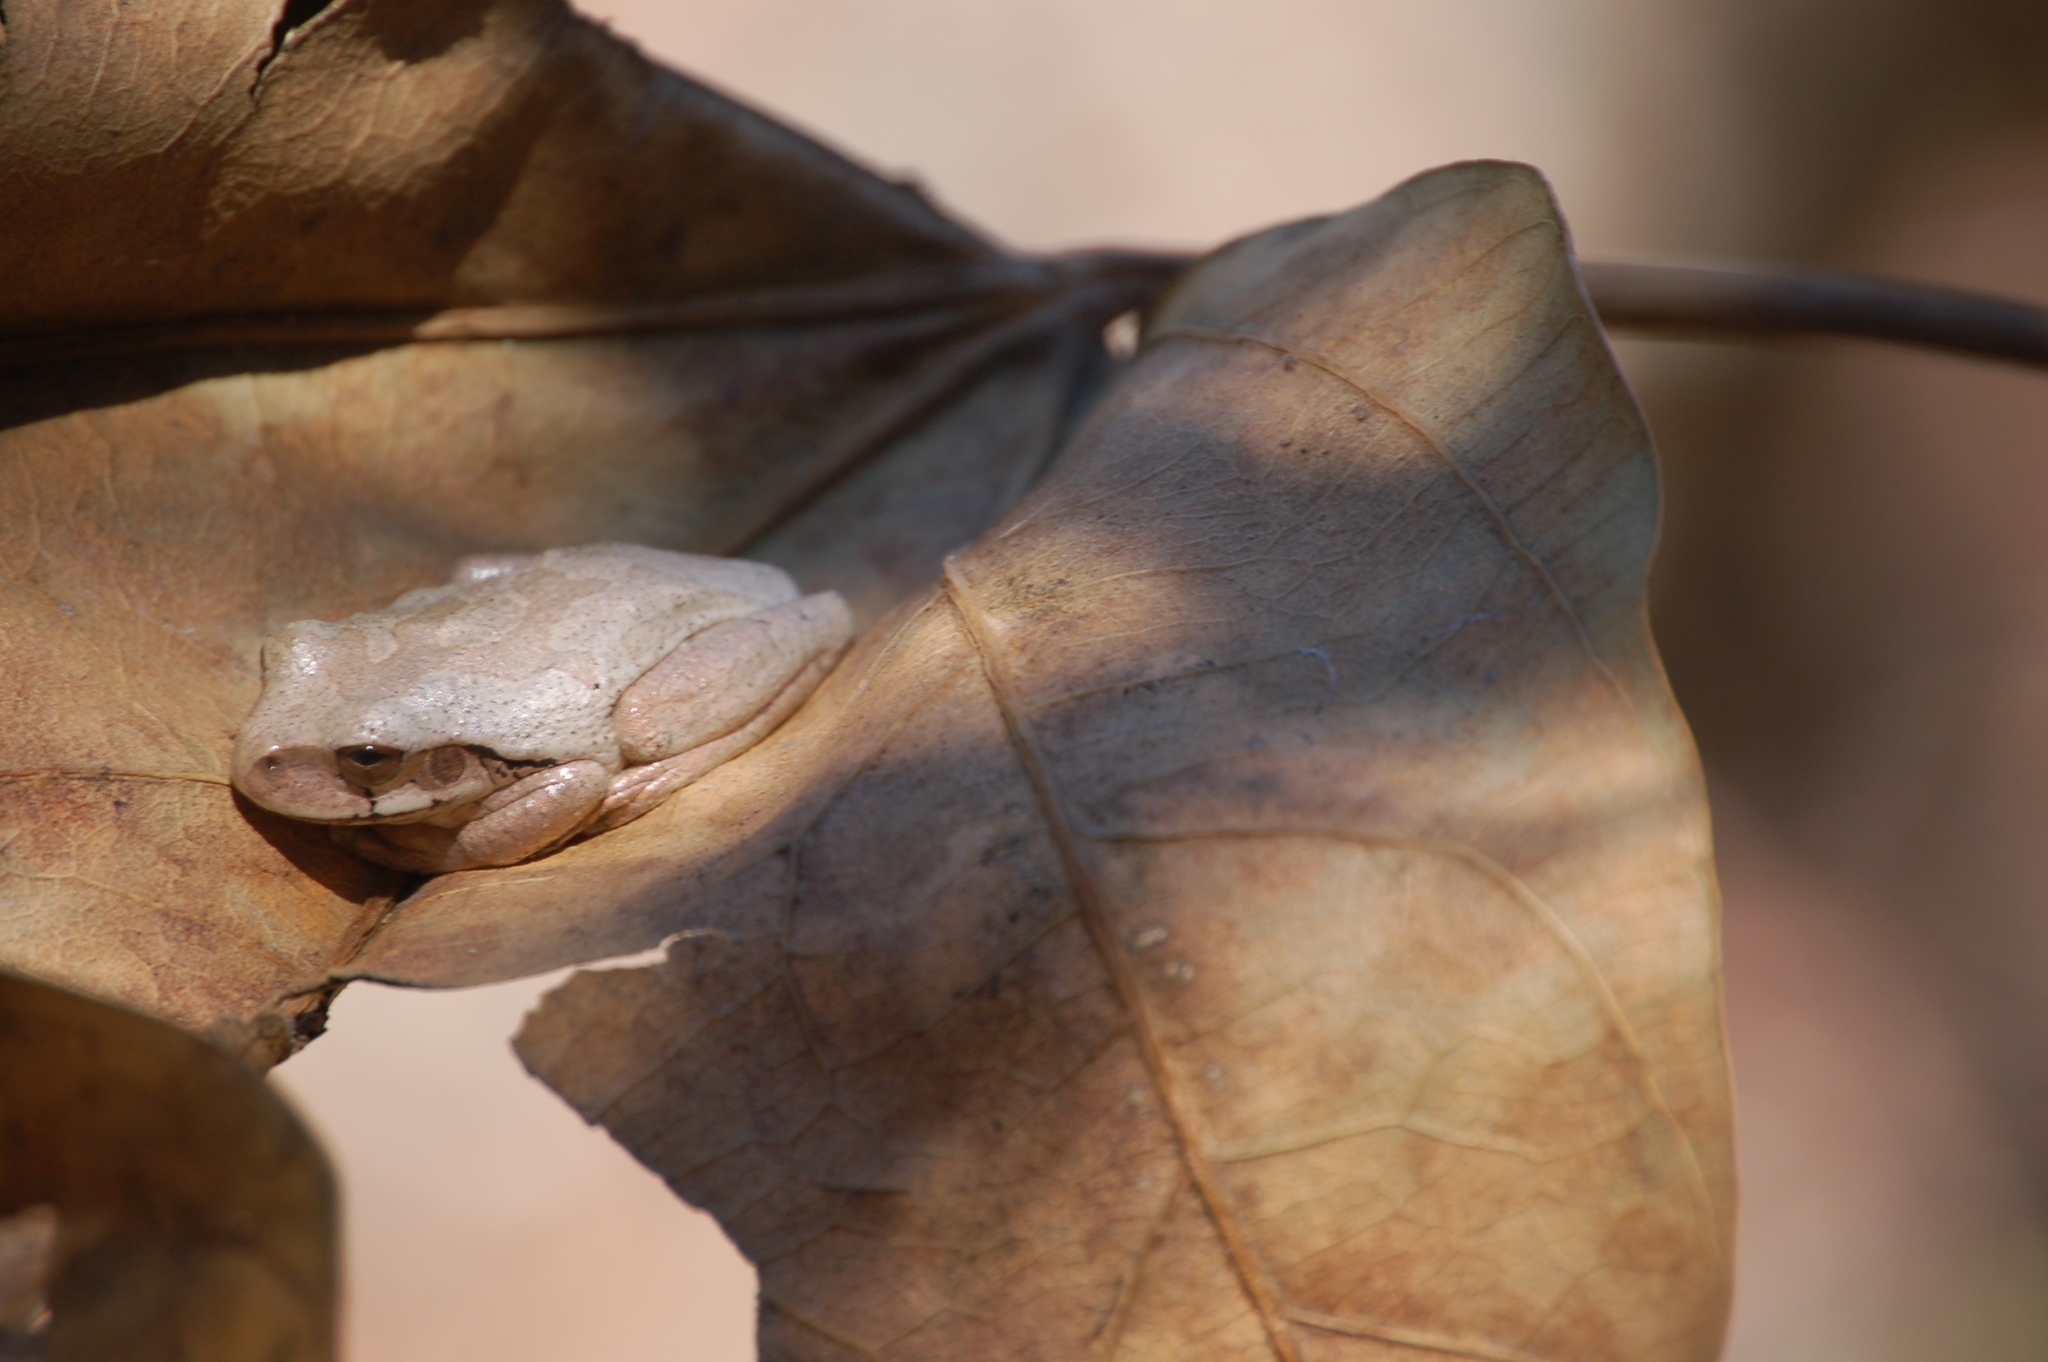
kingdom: Animalia
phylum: Chordata
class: Amphibia
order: Anura
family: Hylidae
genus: Smilisca
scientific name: Smilisca baudinii
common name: Mexican smilisca
